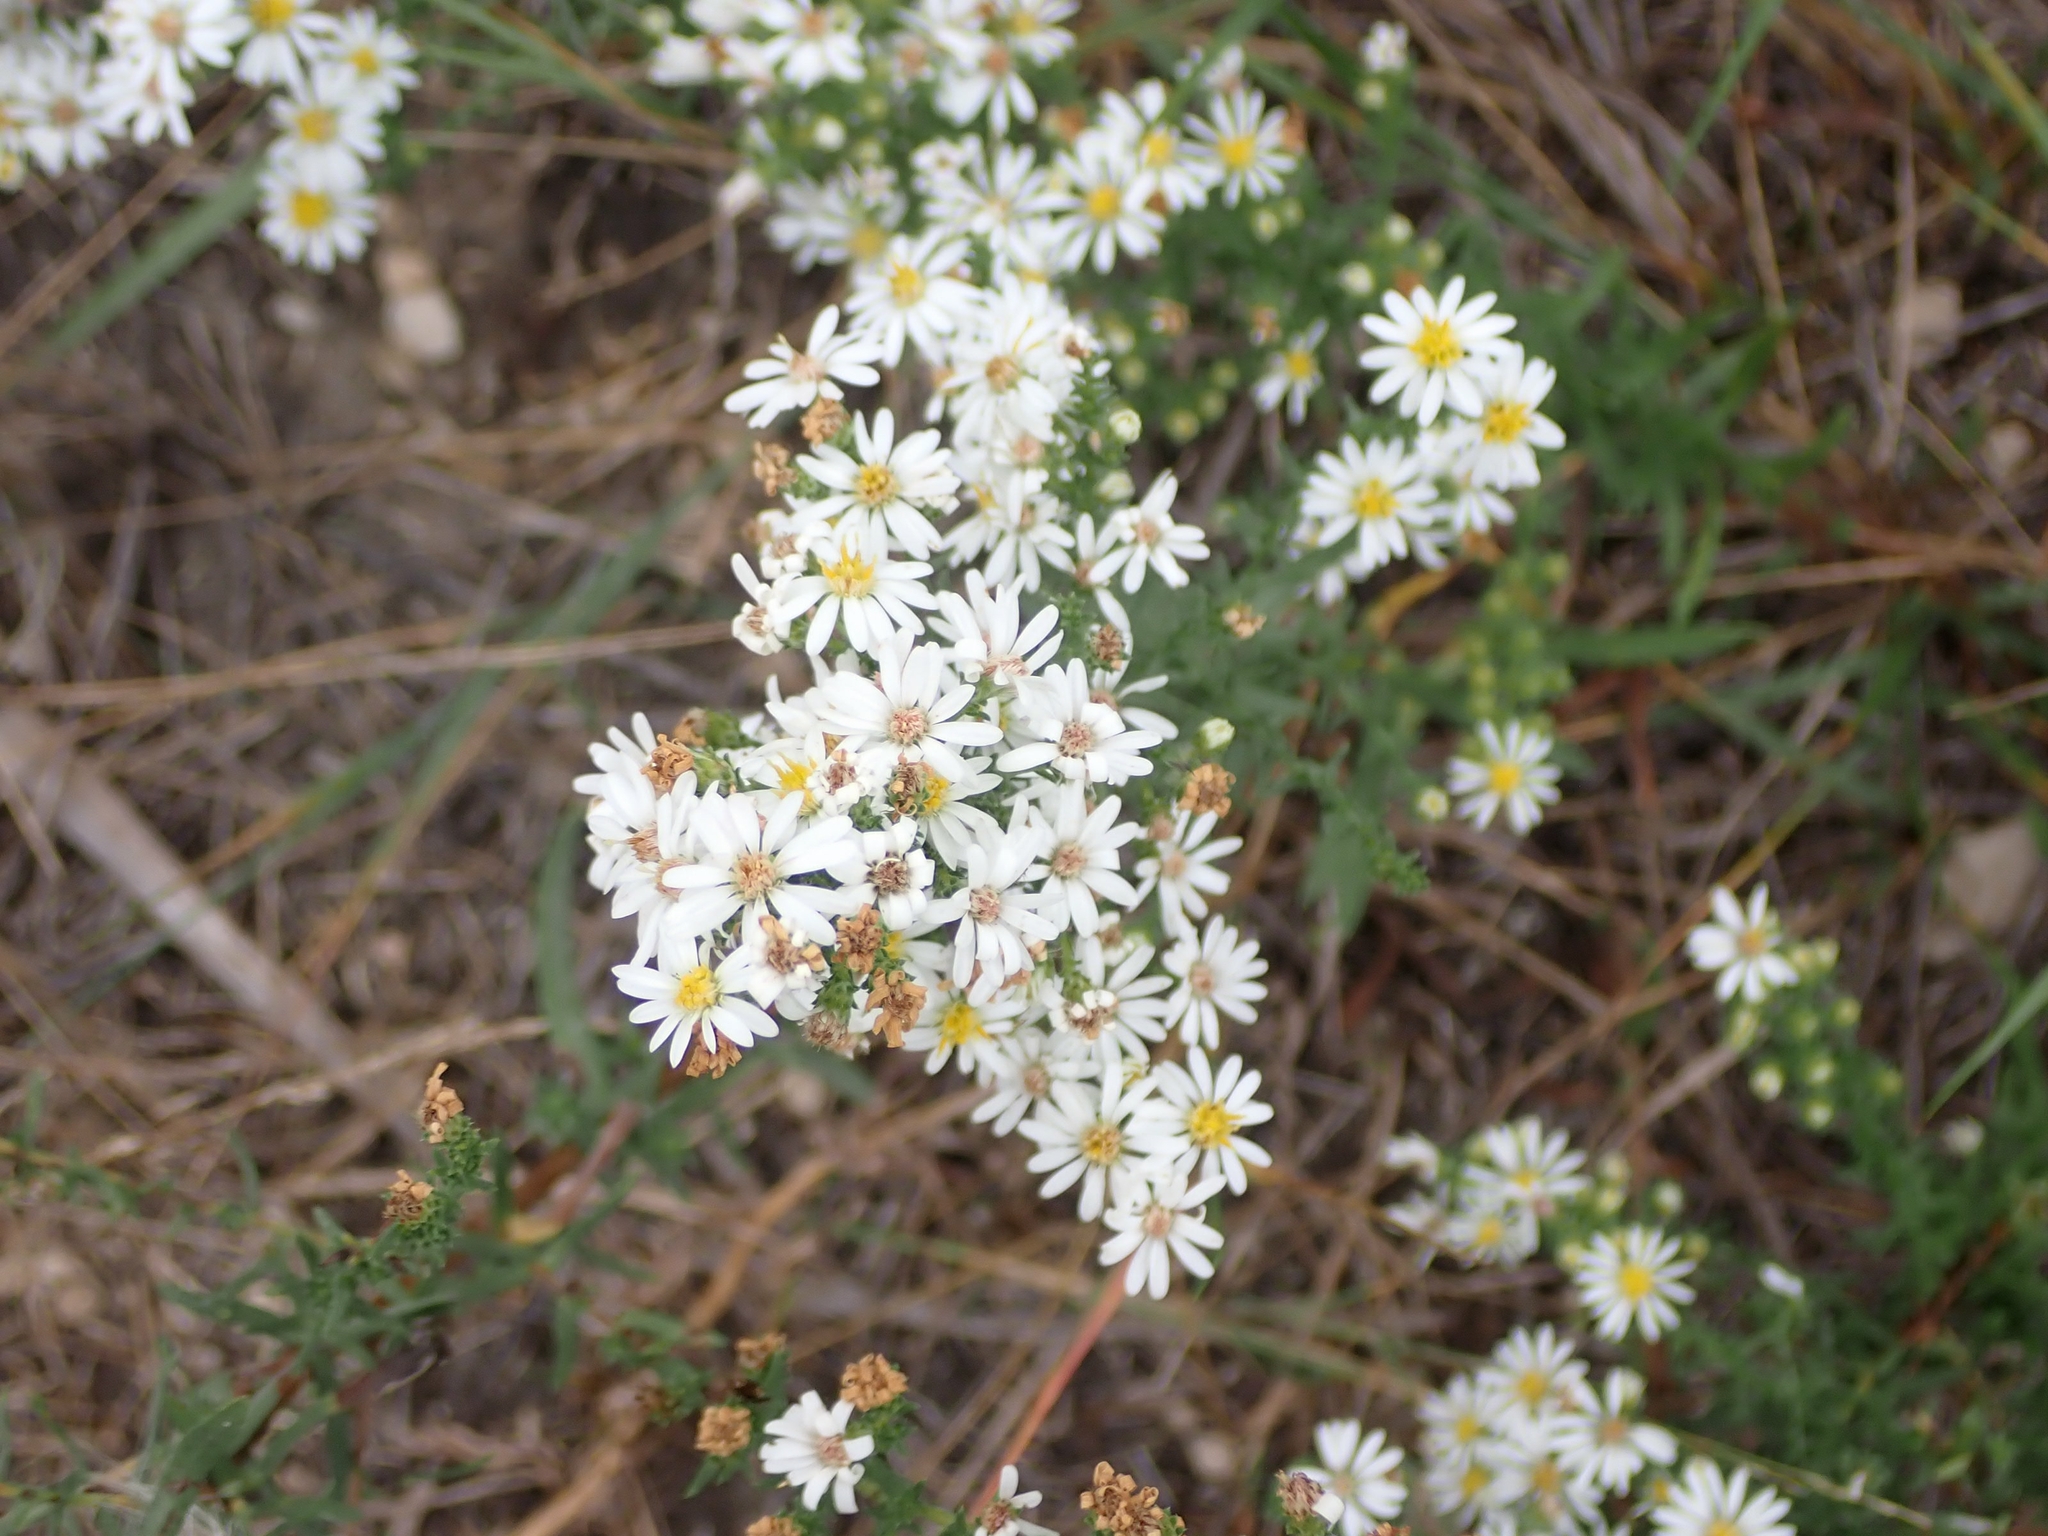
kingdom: Plantae
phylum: Tracheophyta
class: Magnoliopsida
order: Asterales
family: Asteraceae
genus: Symphyotrichum
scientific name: Symphyotrichum ericoides
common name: Heath aster
